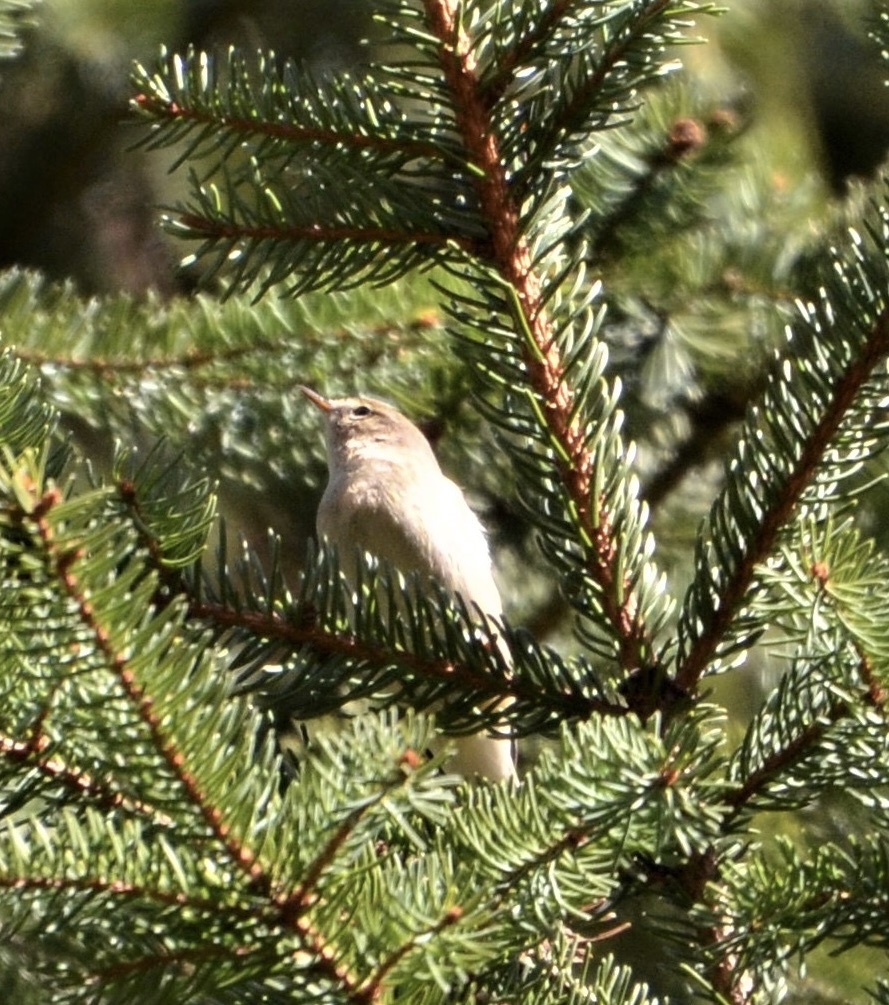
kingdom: Animalia
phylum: Chordata
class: Aves
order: Passeriformes
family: Phylloscopidae
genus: Phylloscopus
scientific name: Phylloscopus collybita
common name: Common chiffchaff
